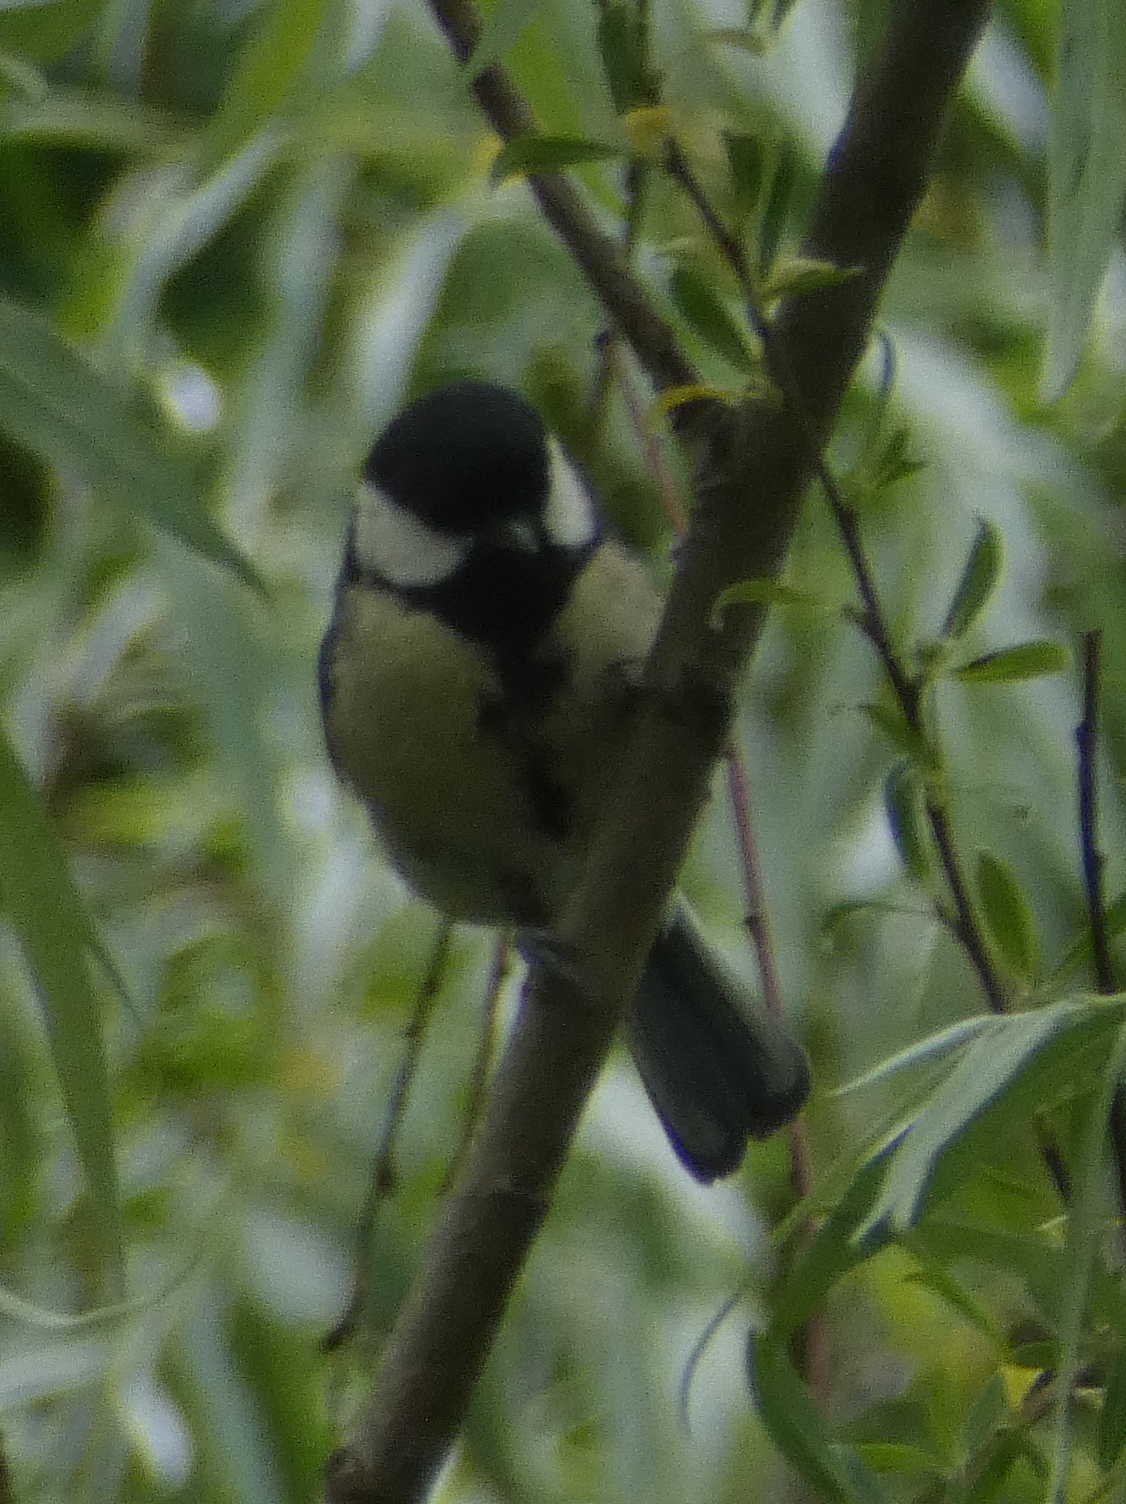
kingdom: Animalia
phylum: Chordata
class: Aves
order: Passeriformes
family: Paridae
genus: Parus
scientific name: Parus major
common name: Great tit
